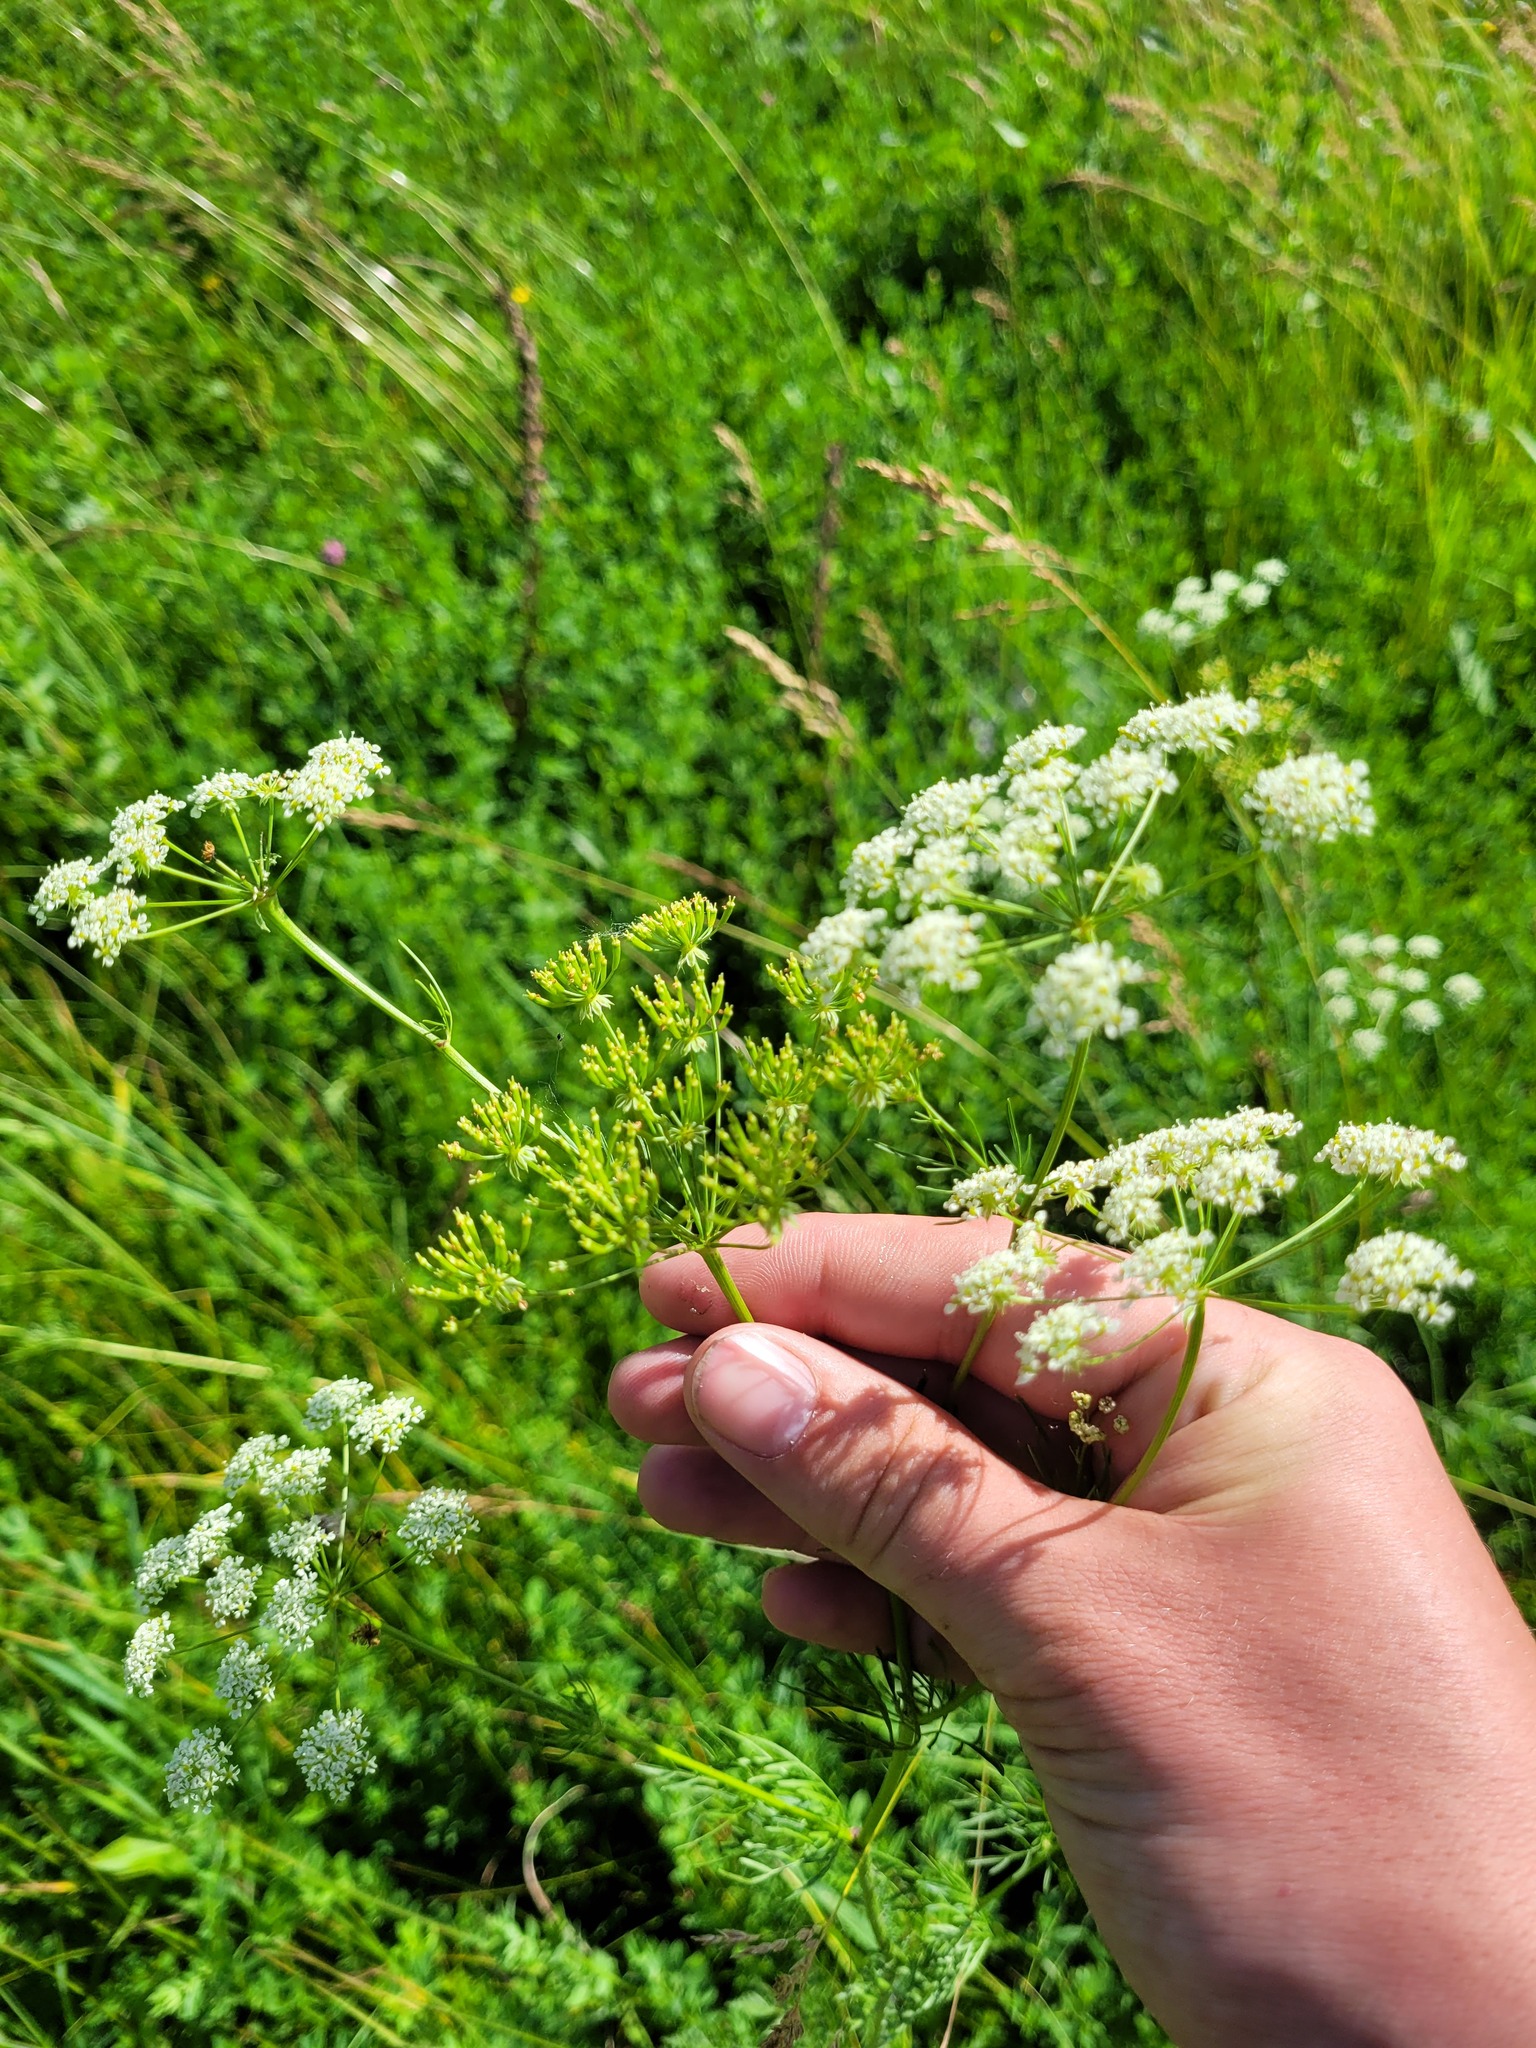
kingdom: Plantae
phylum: Tracheophyta
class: Magnoliopsida
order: Apiales
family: Apiaceae
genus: Chaerophyllum
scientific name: Chaerophyllum prescottii
